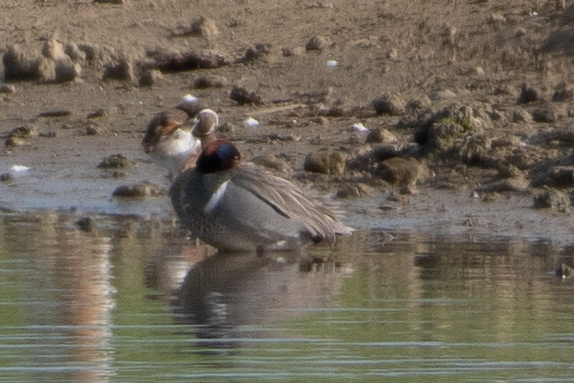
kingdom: Animalia
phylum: Chordata
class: Aves
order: Anseriformes
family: Anatidae
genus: Anas
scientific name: Anas crecca
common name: Eurasian teal
